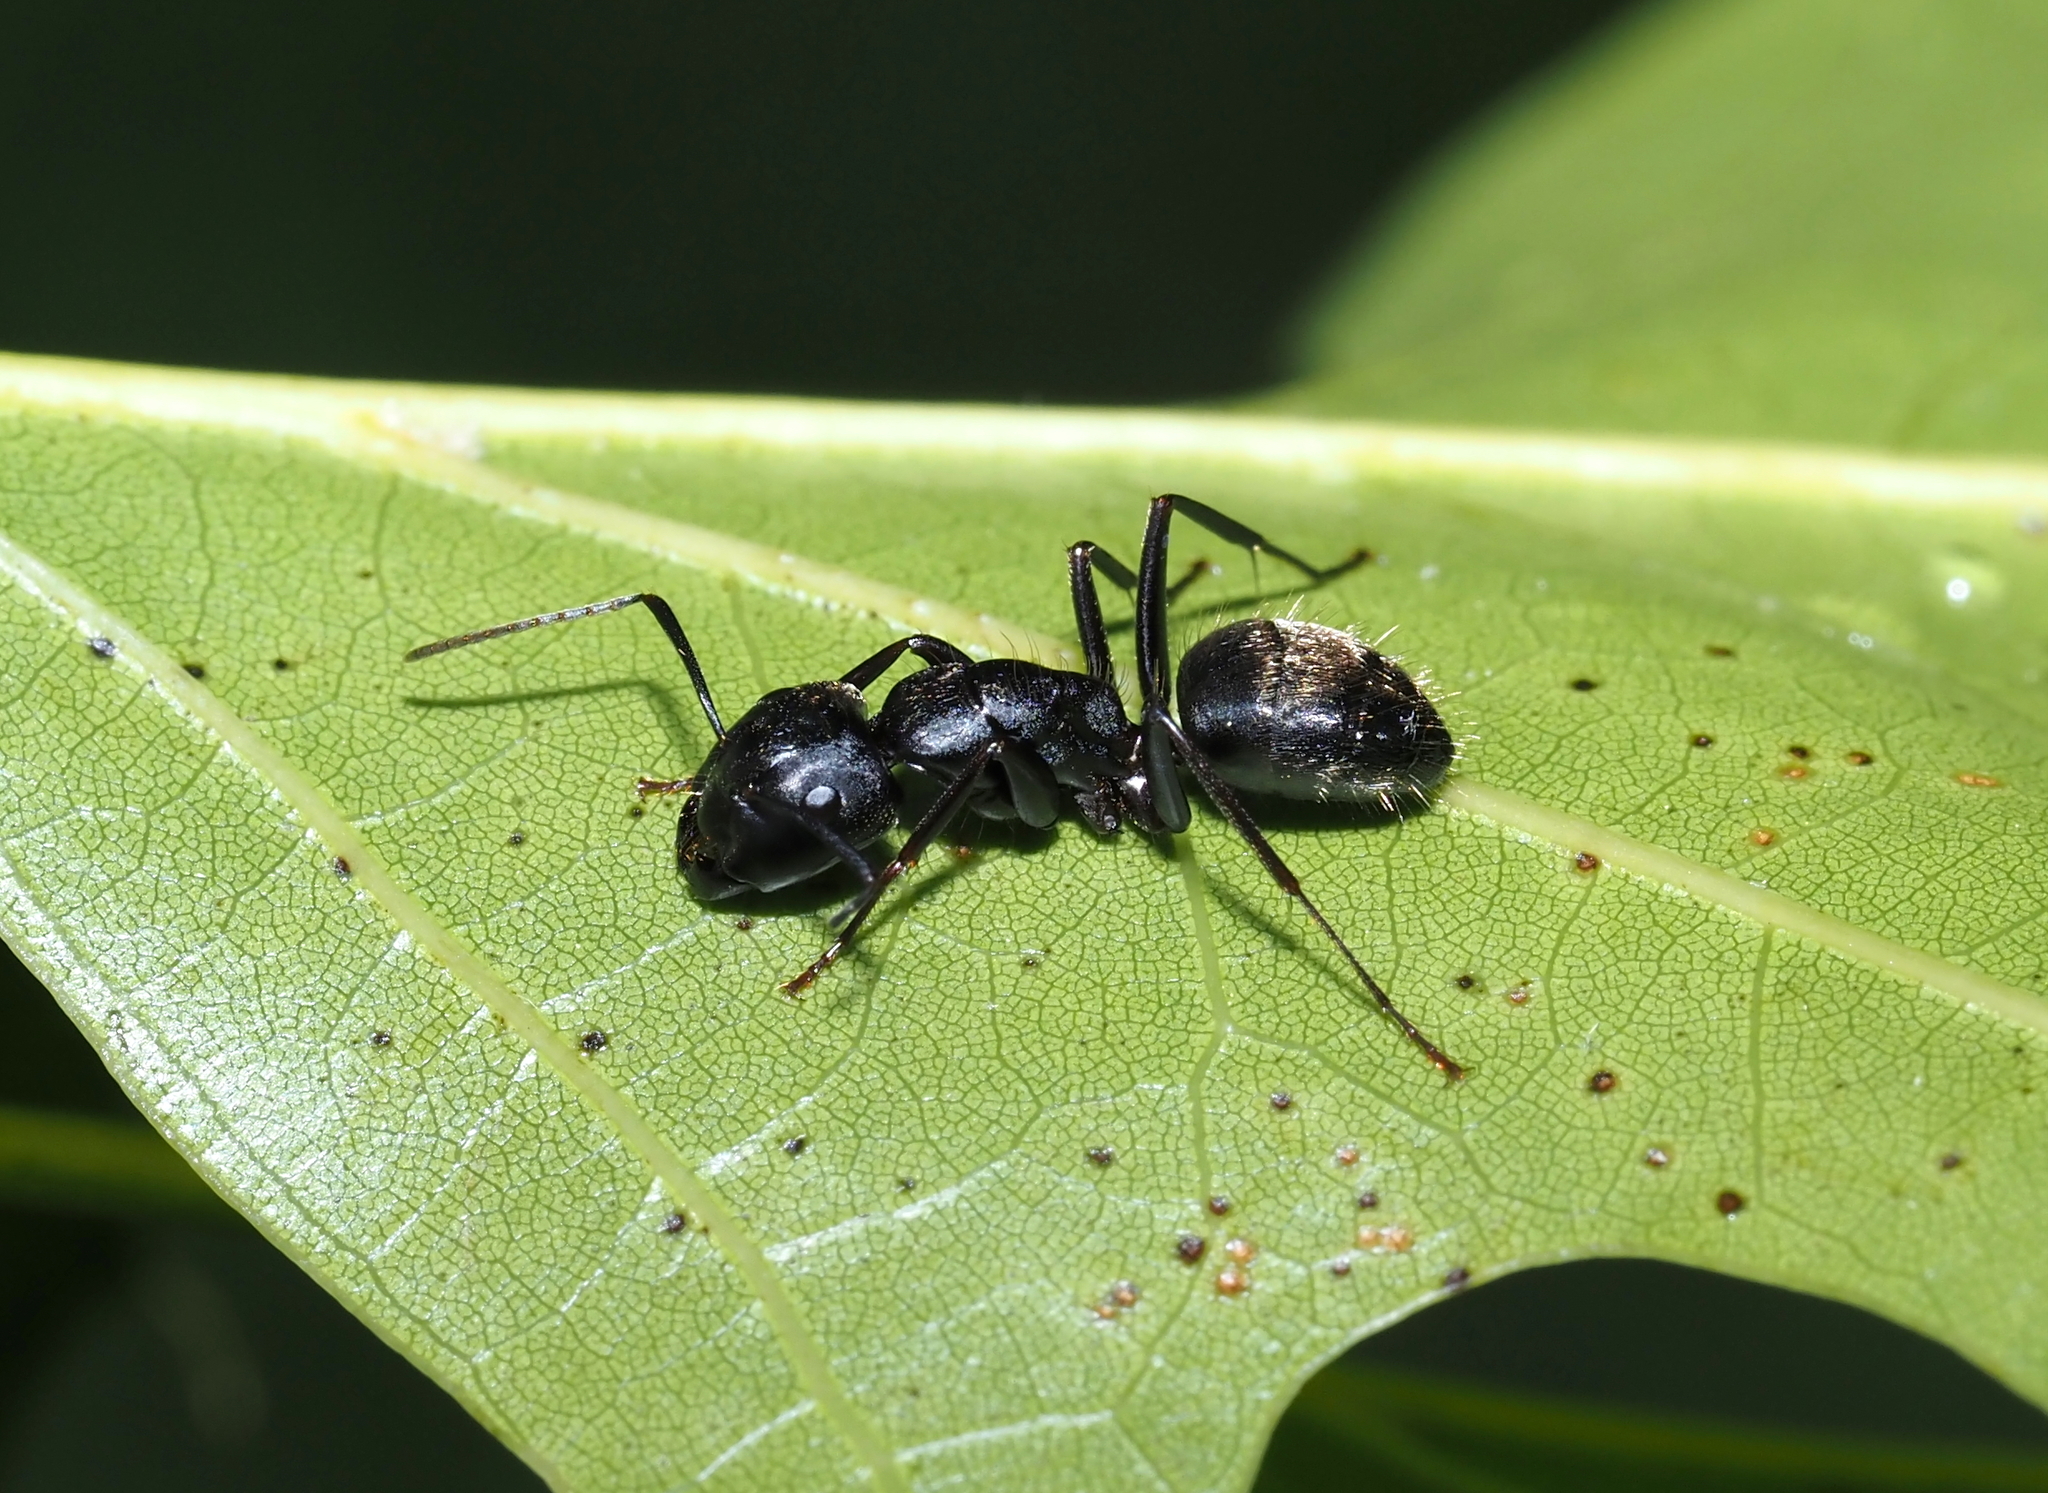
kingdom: Animalia
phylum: Arthropoda
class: Insecta
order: Hymenoptera
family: Formicidae
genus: Camponotus
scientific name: Camponotus pennsylvanicus
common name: Black carpenter ant
